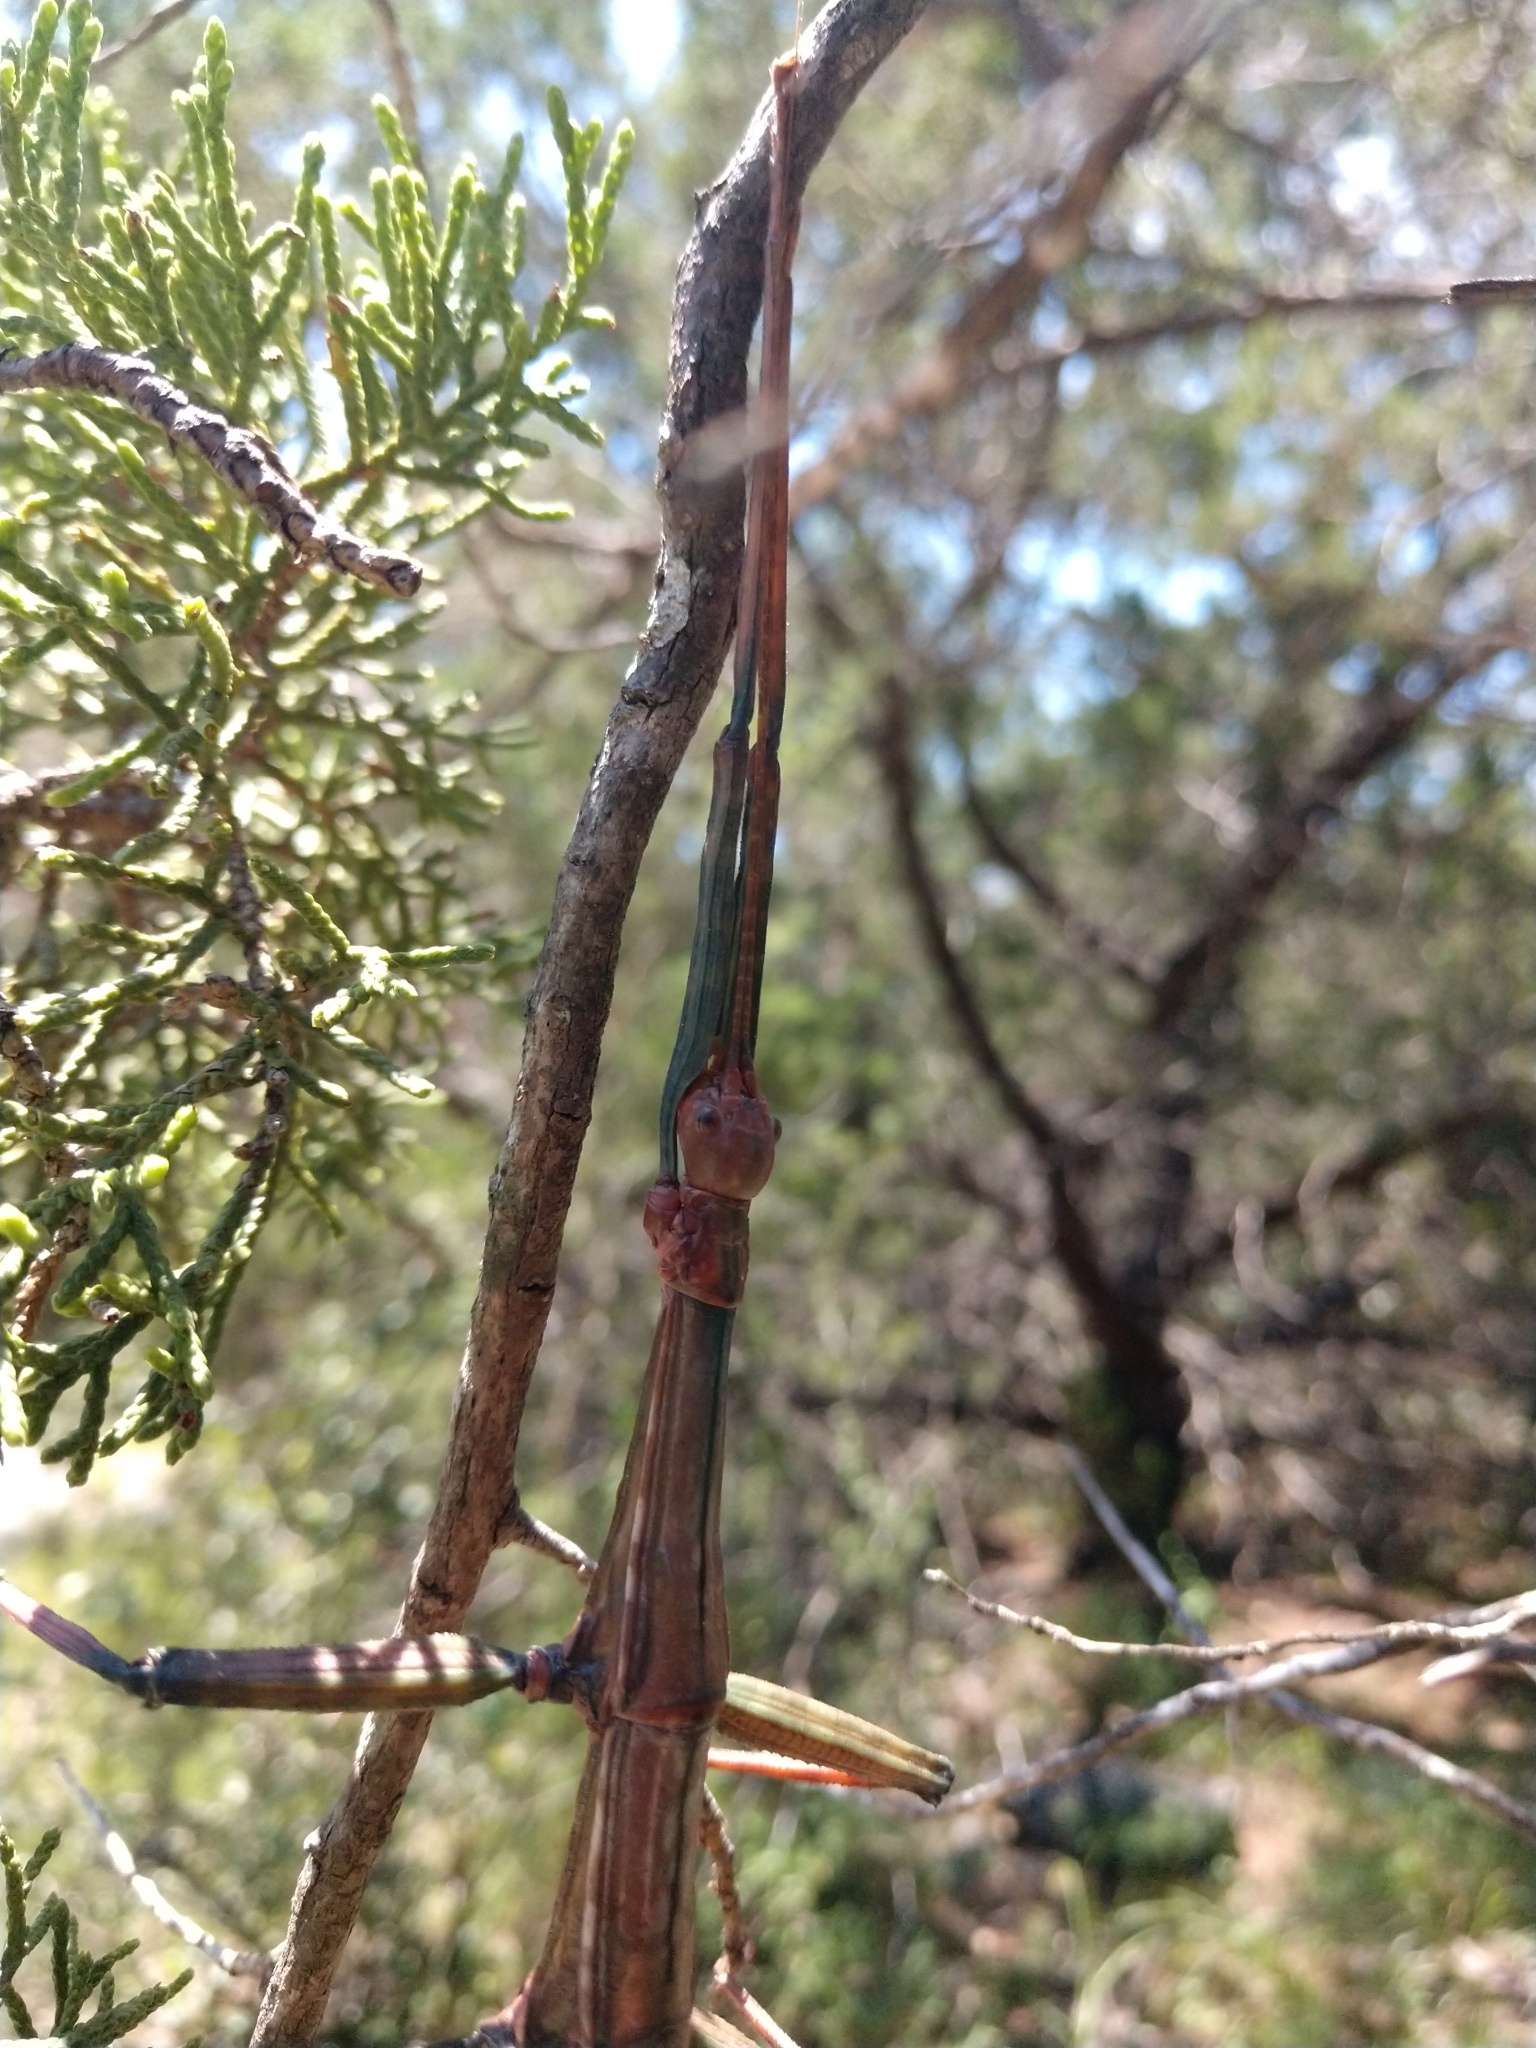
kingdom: Animalia
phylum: Arthropoda
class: Insecta
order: Phasmida
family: Diapheromeridae
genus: Megaphasma
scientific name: Megaphasma denticrus
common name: Giant walkingstick
